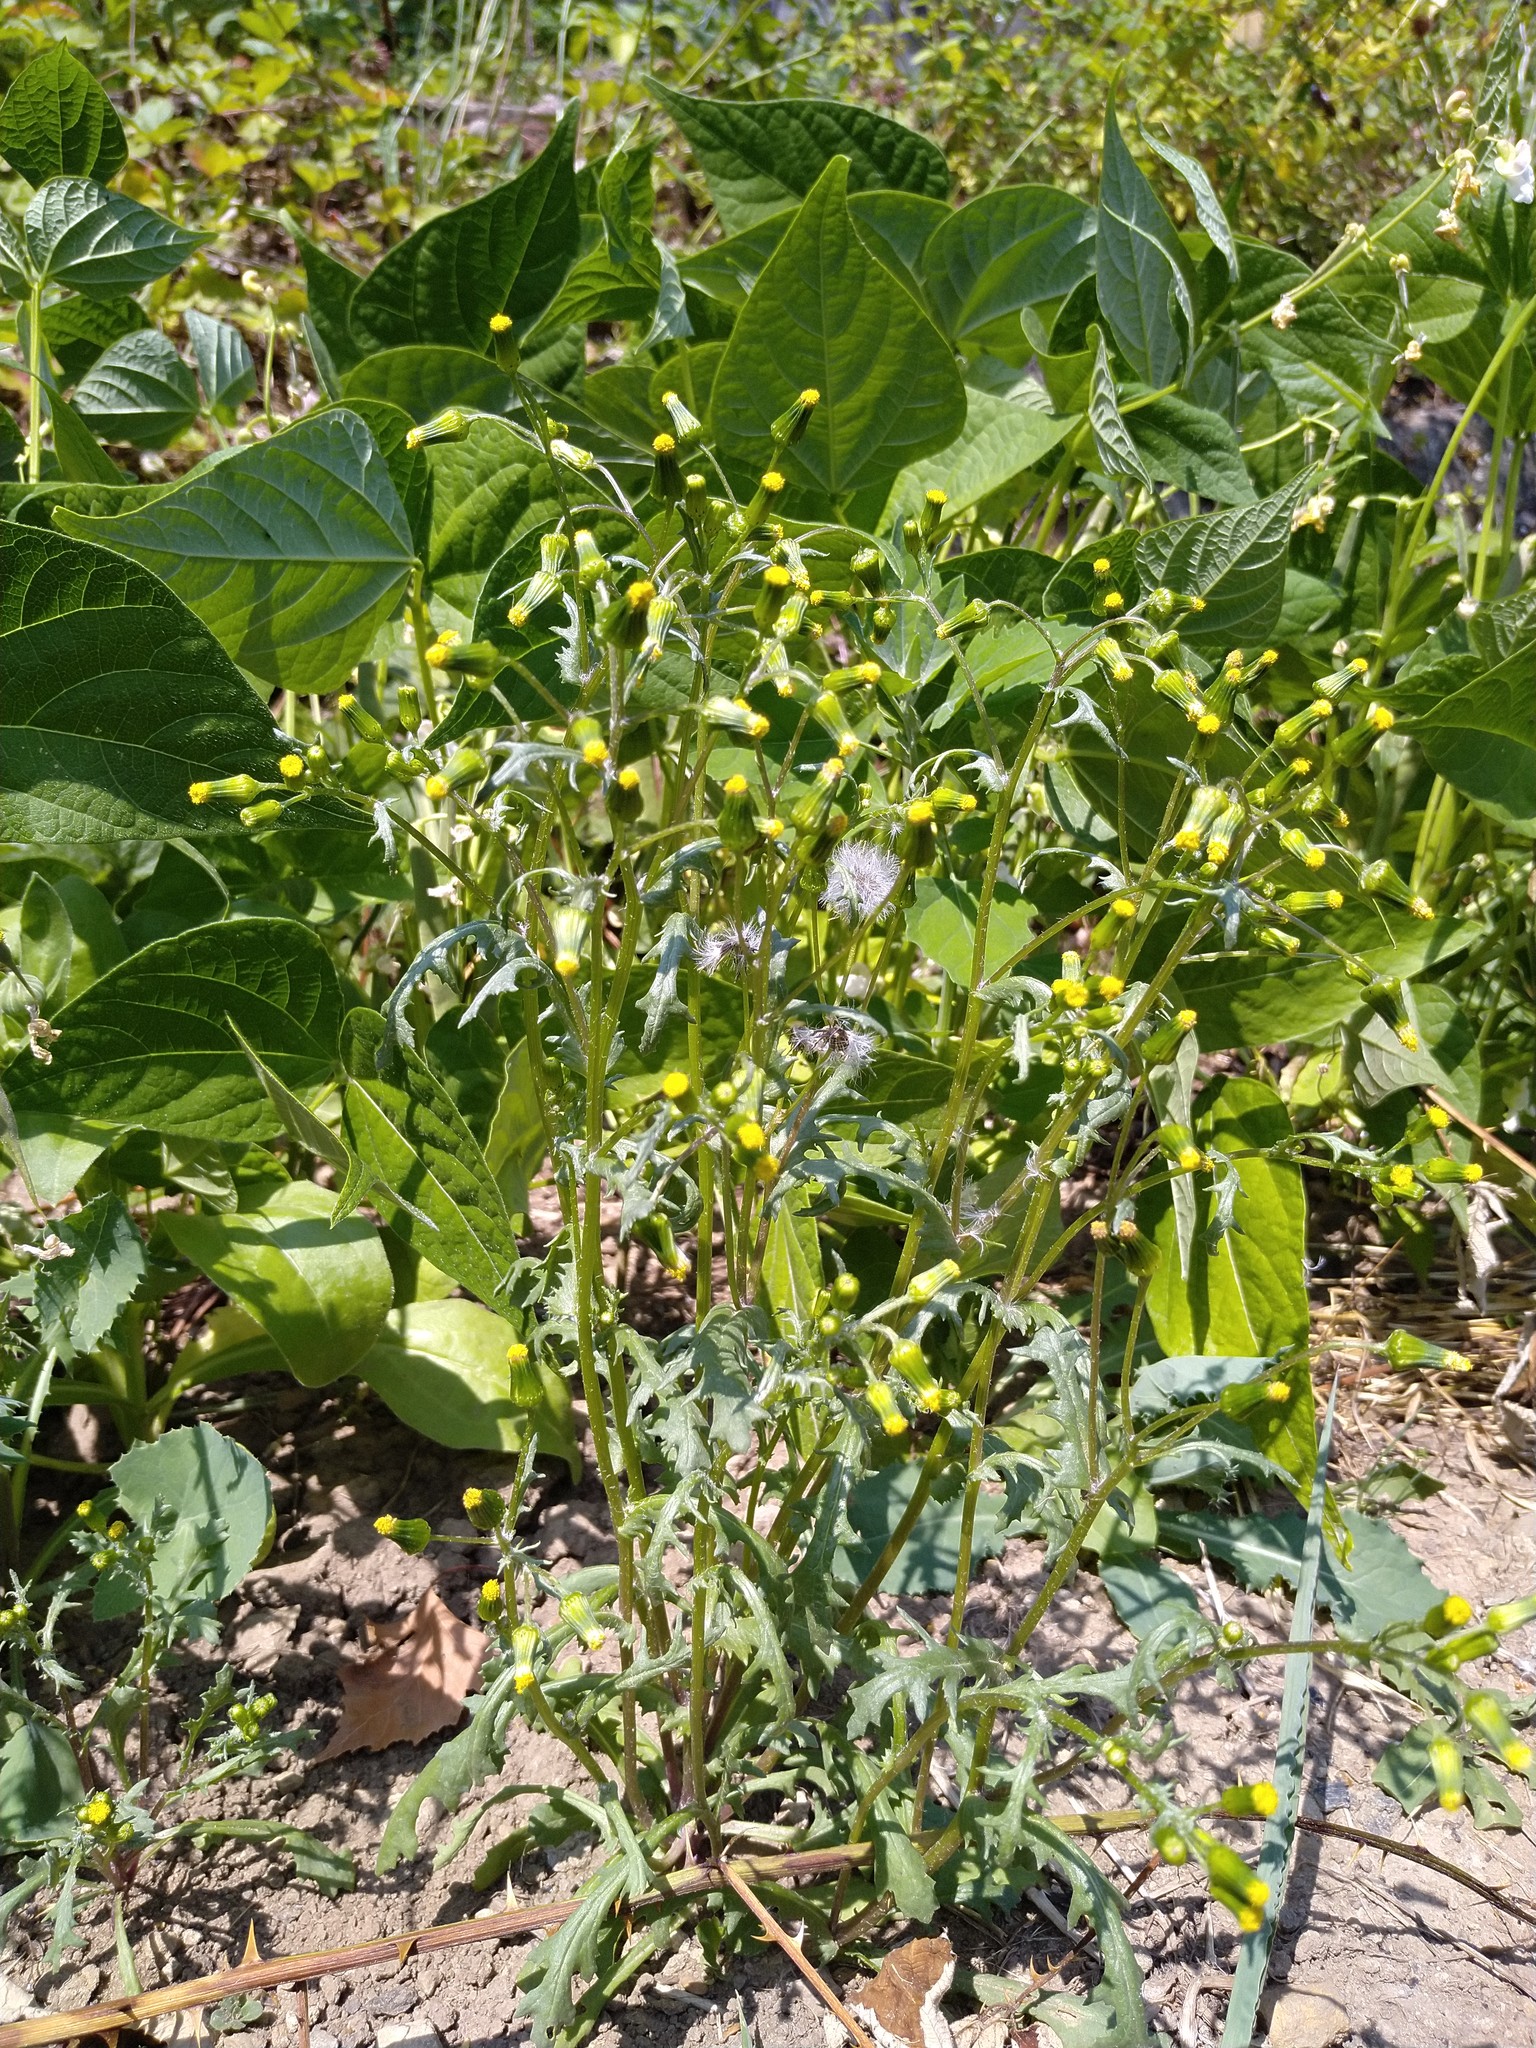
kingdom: Plantae
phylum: Tracheophyta
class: Magnoliopsida
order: Asterales
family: Asteraceae
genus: Senecio
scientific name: Senecio vulgaris
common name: Old-man-in-the-spring
